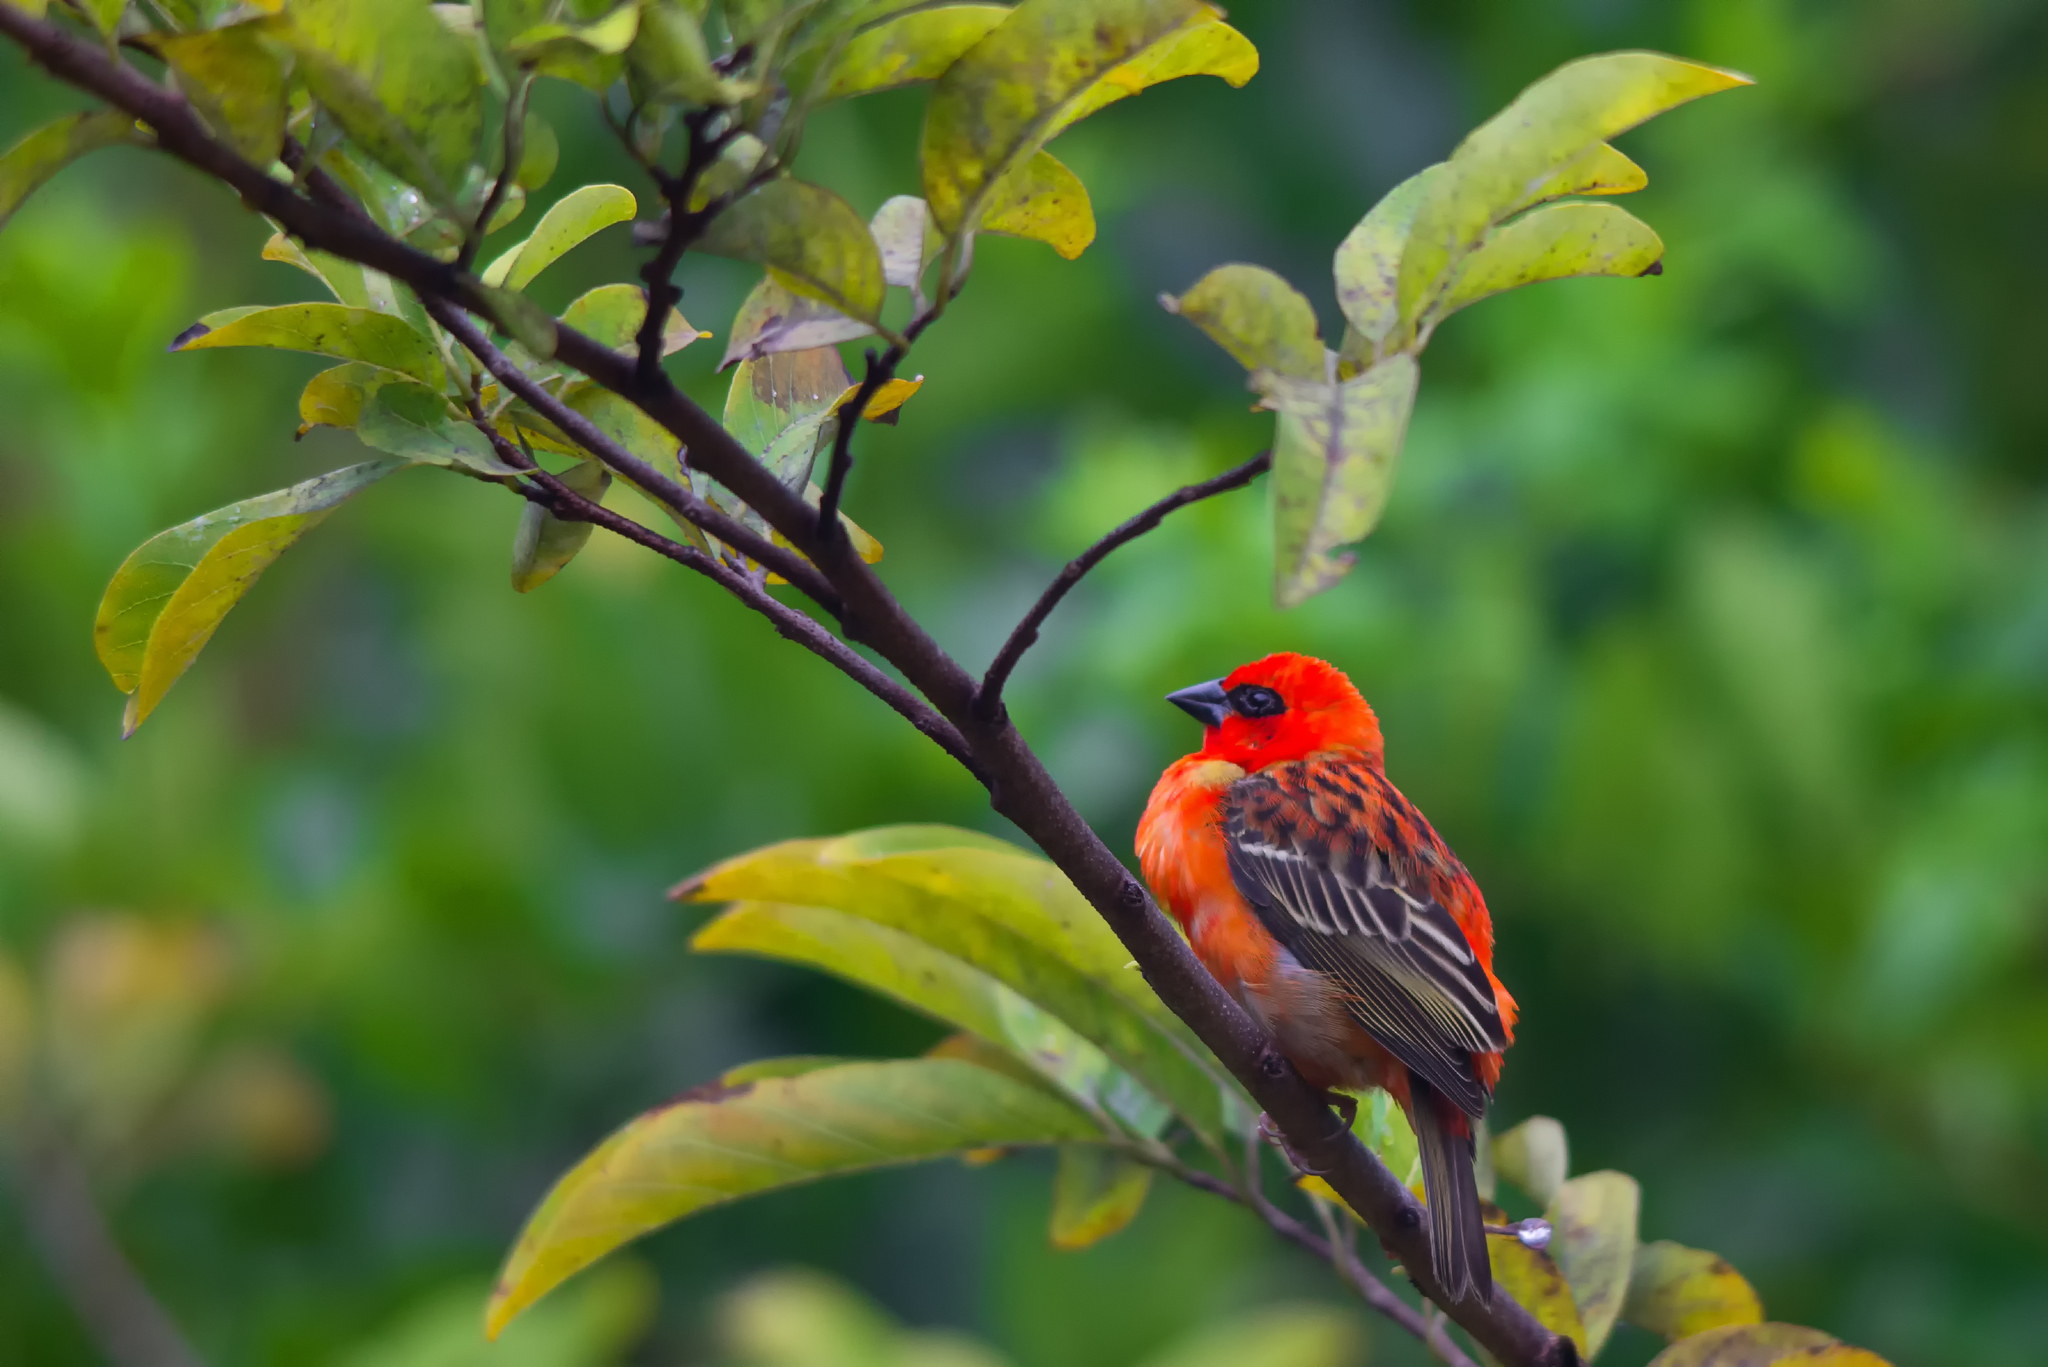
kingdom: Animalia
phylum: Chordata
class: Aves
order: Passeriformes
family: Ploceidae
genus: Foudia
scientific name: Foudia madagascariensis
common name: Red fody
